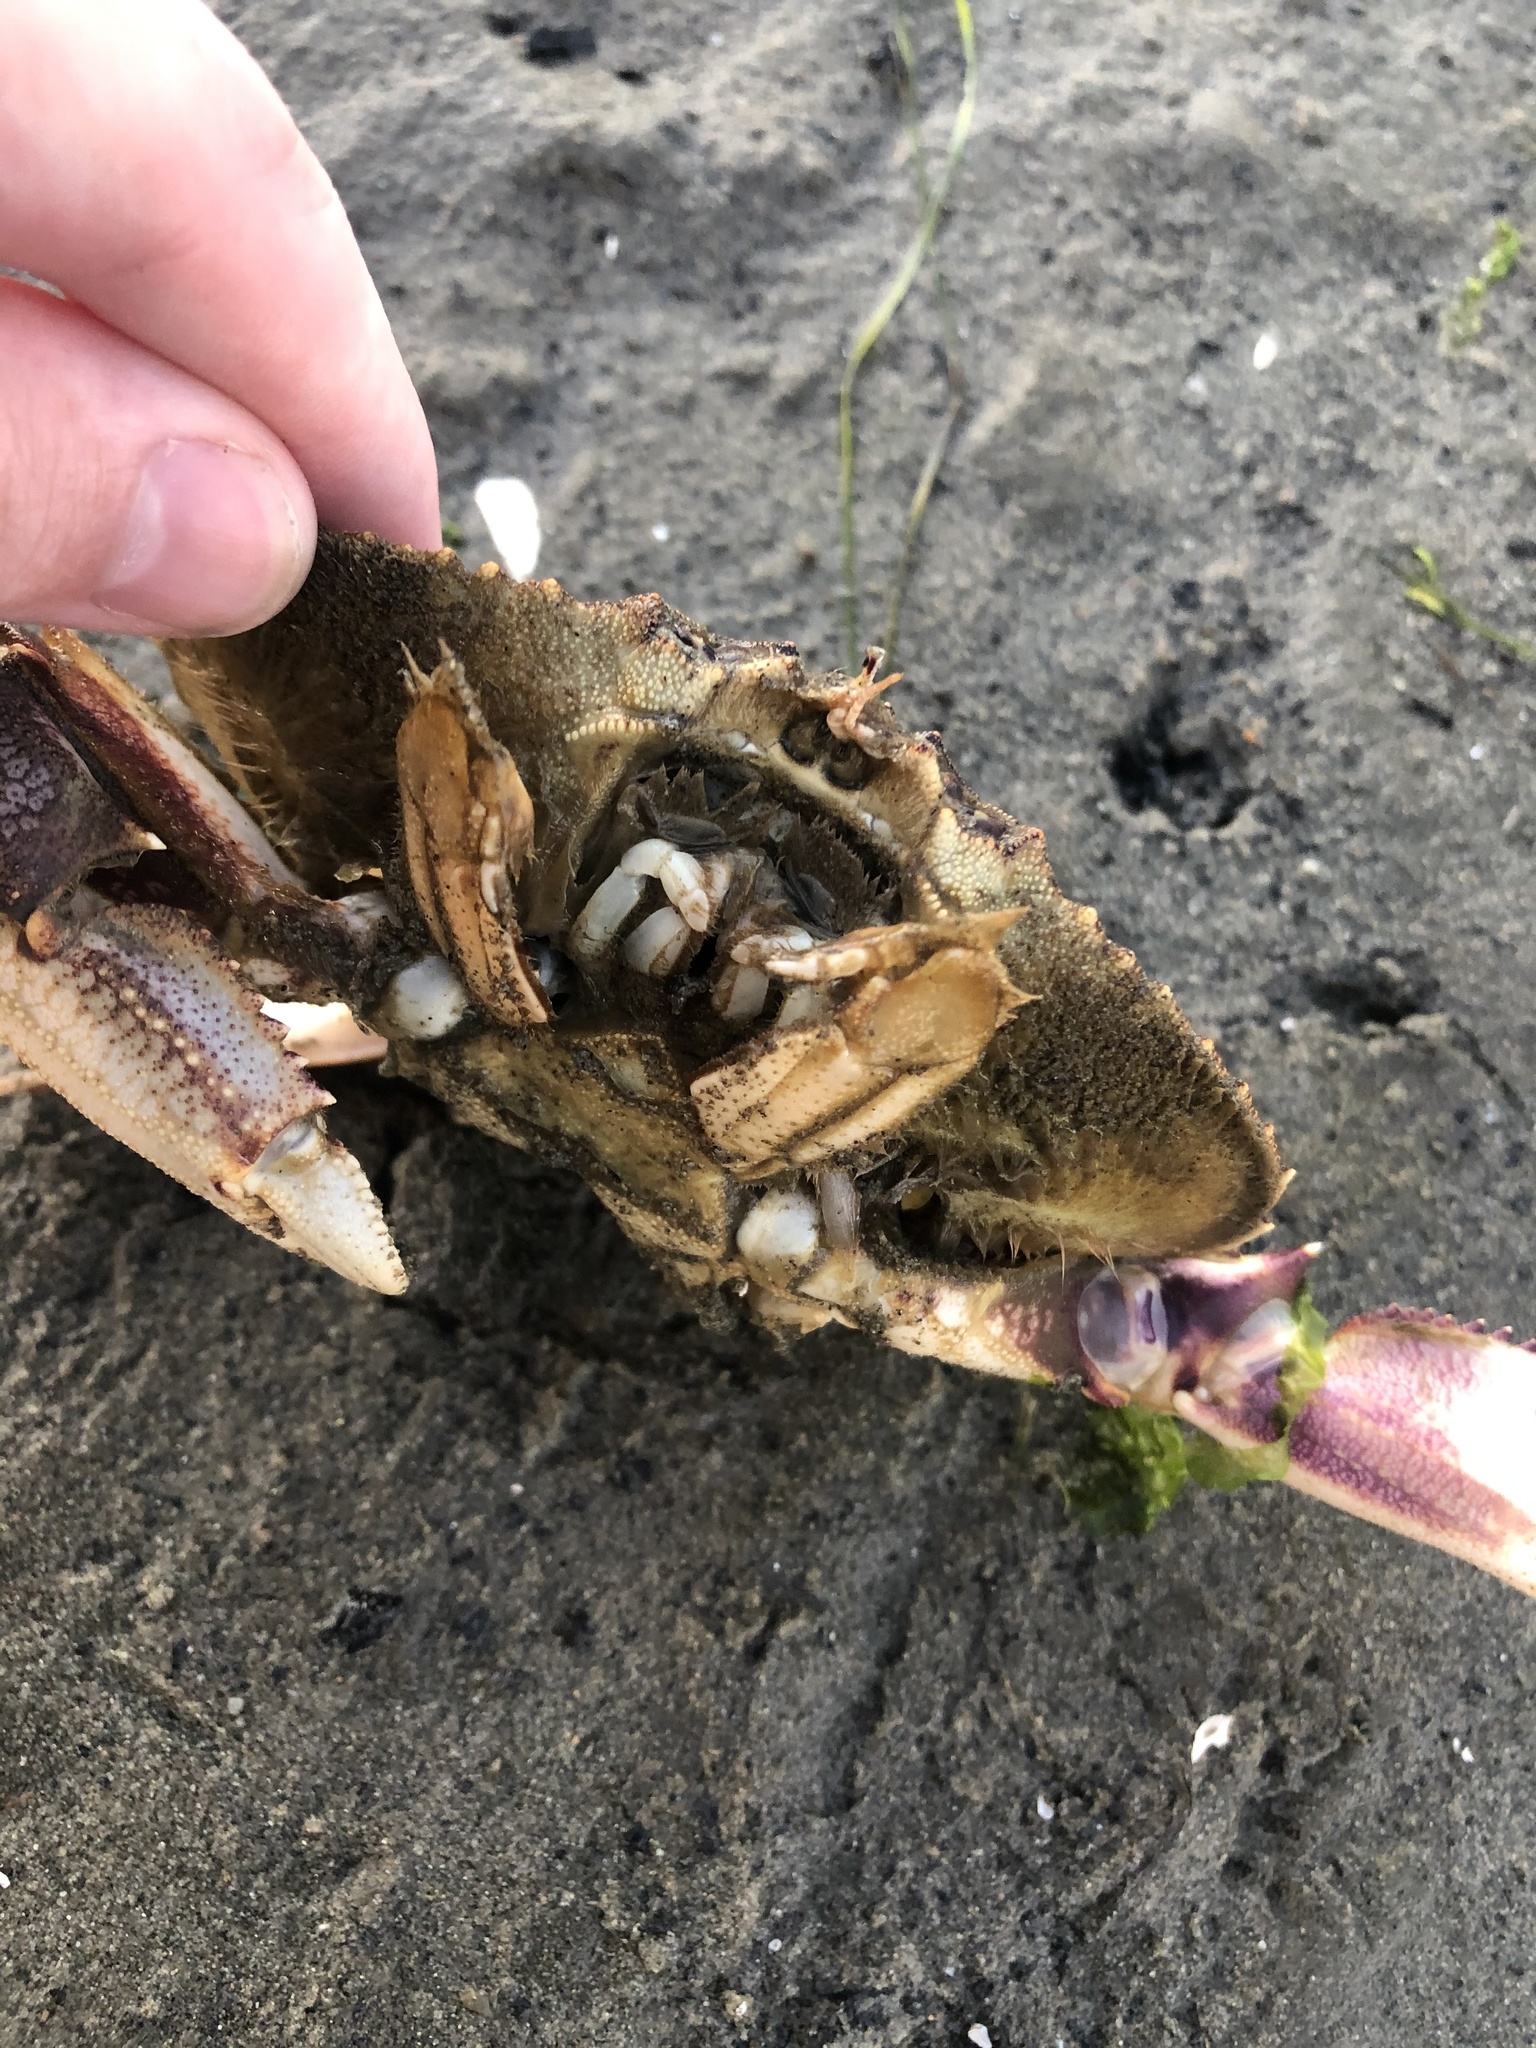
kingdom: Animalia
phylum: Arthropoda
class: Malacostraca
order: Decapoda
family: Cancridae
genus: Metacarcinus
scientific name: Metacarcinus magister
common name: Californian crab
